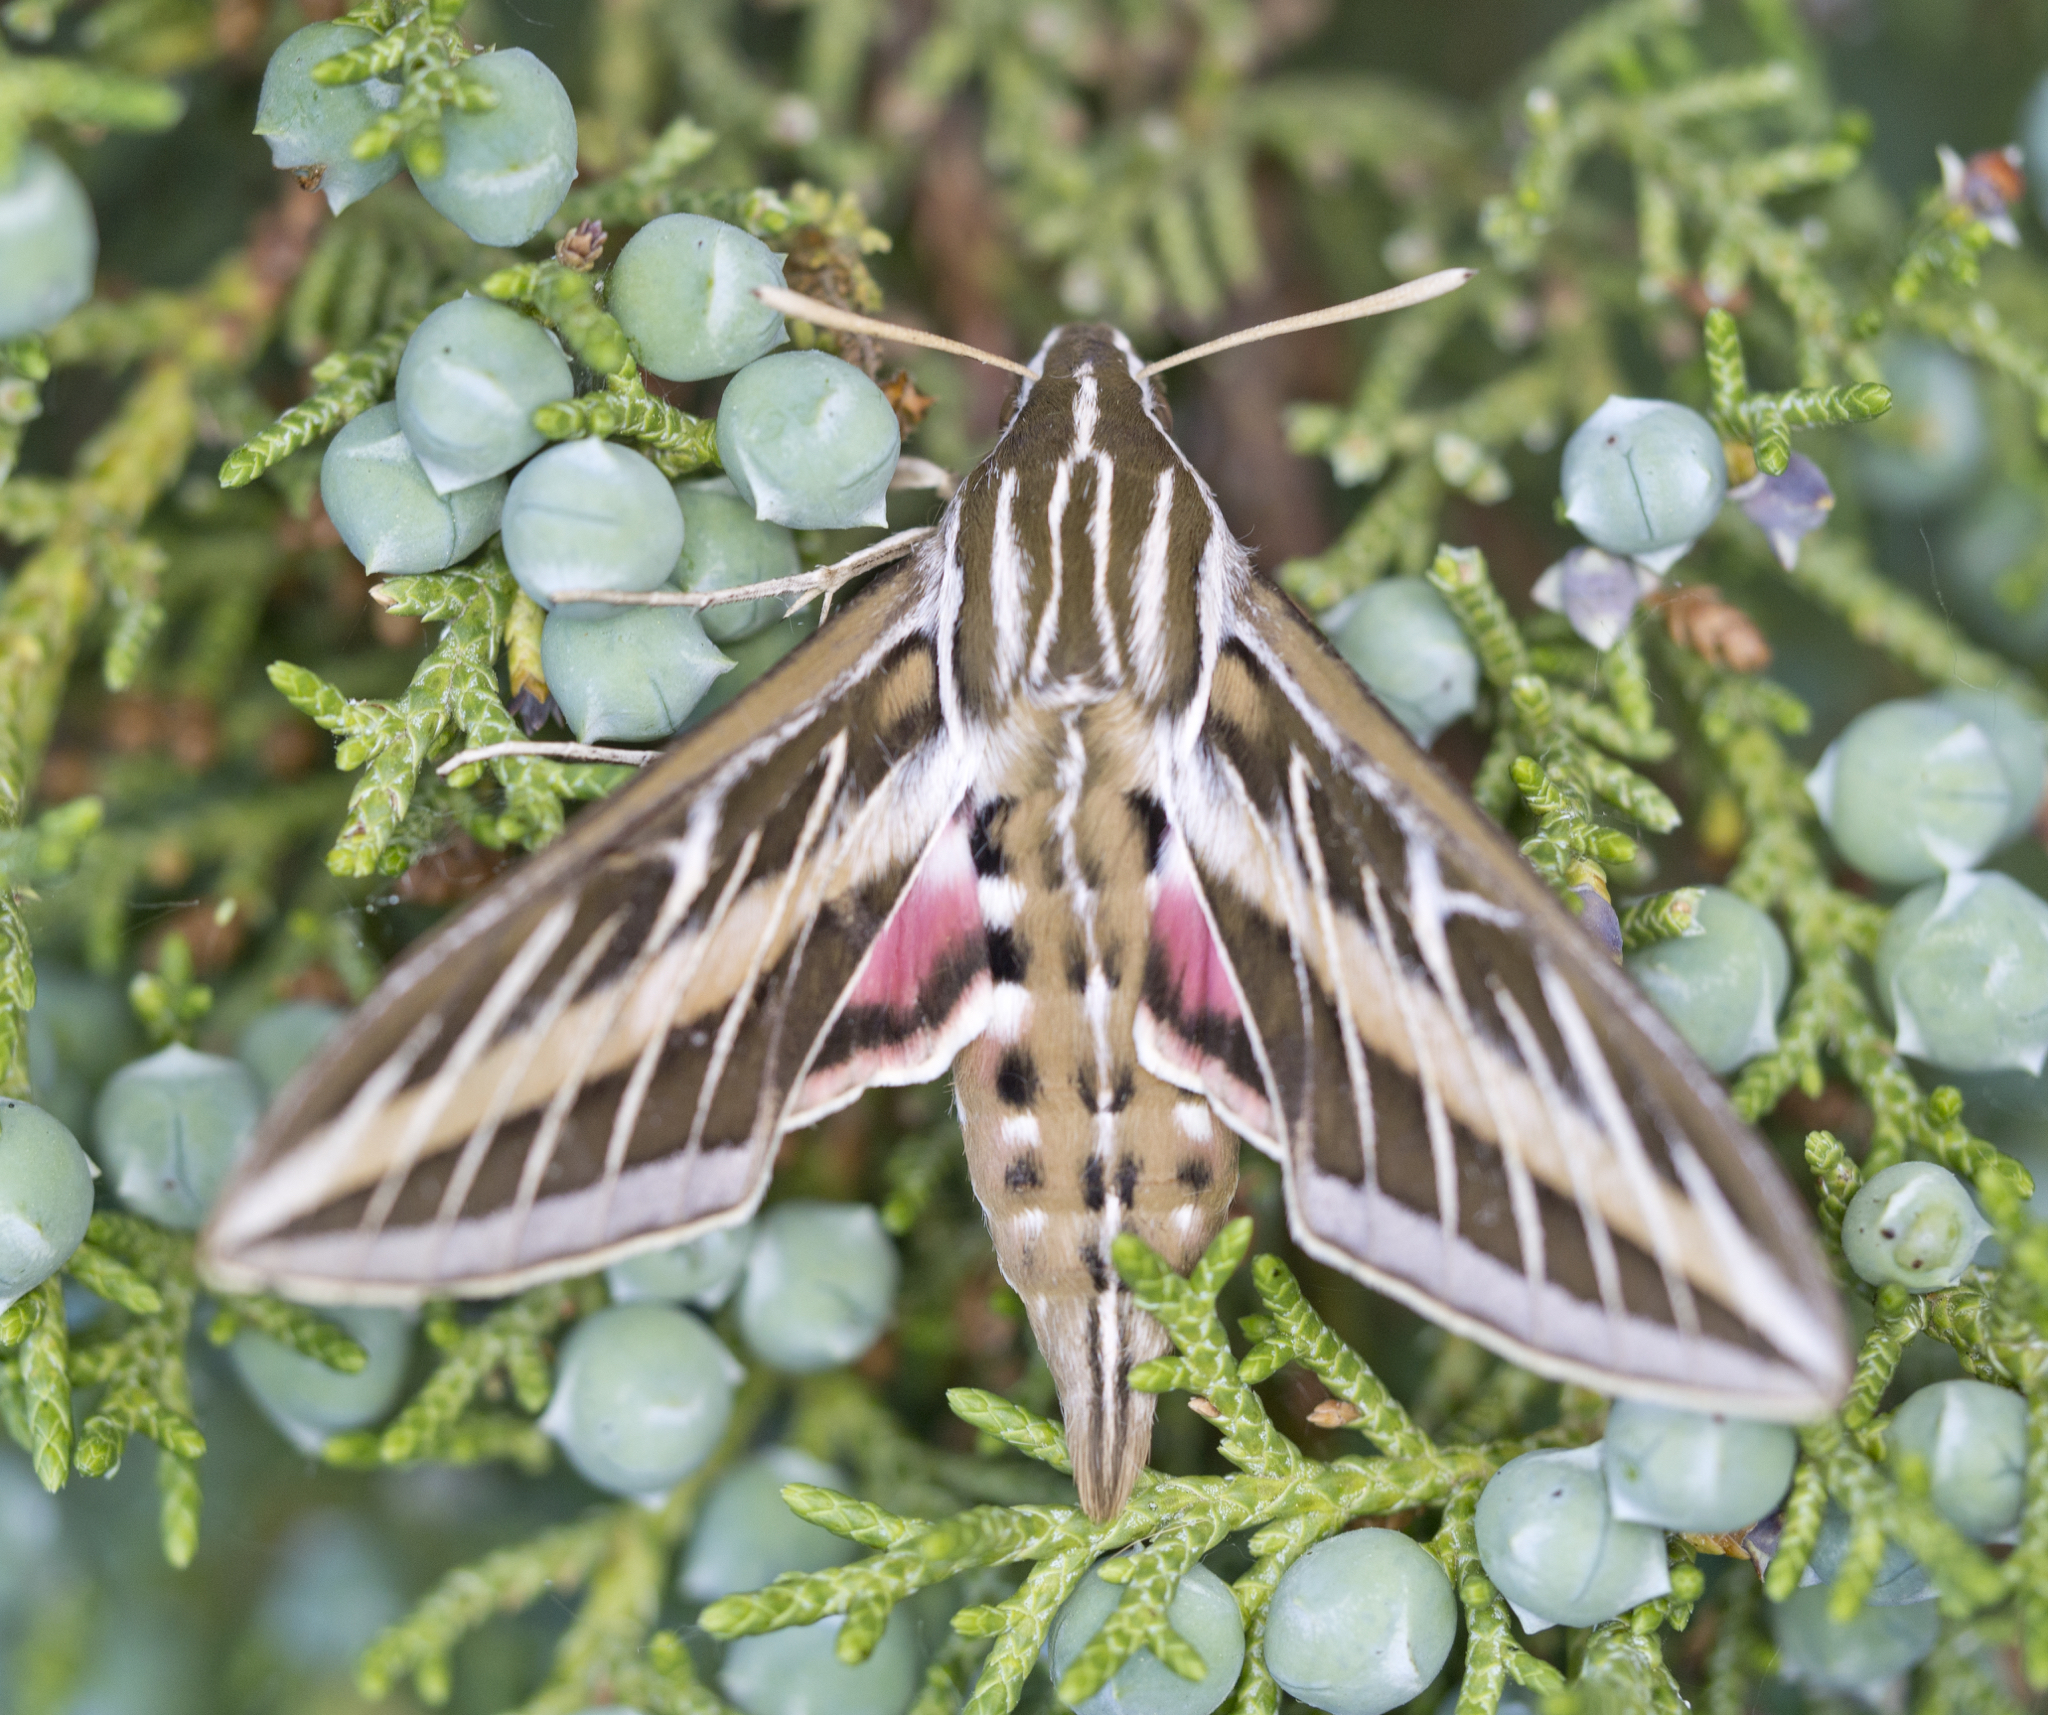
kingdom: Animalia
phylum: Arthropoda
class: Insecta
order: Lepidoptera
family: Sphingidae
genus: Hyles
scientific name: Hyles lineata
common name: White-lined sphinx
